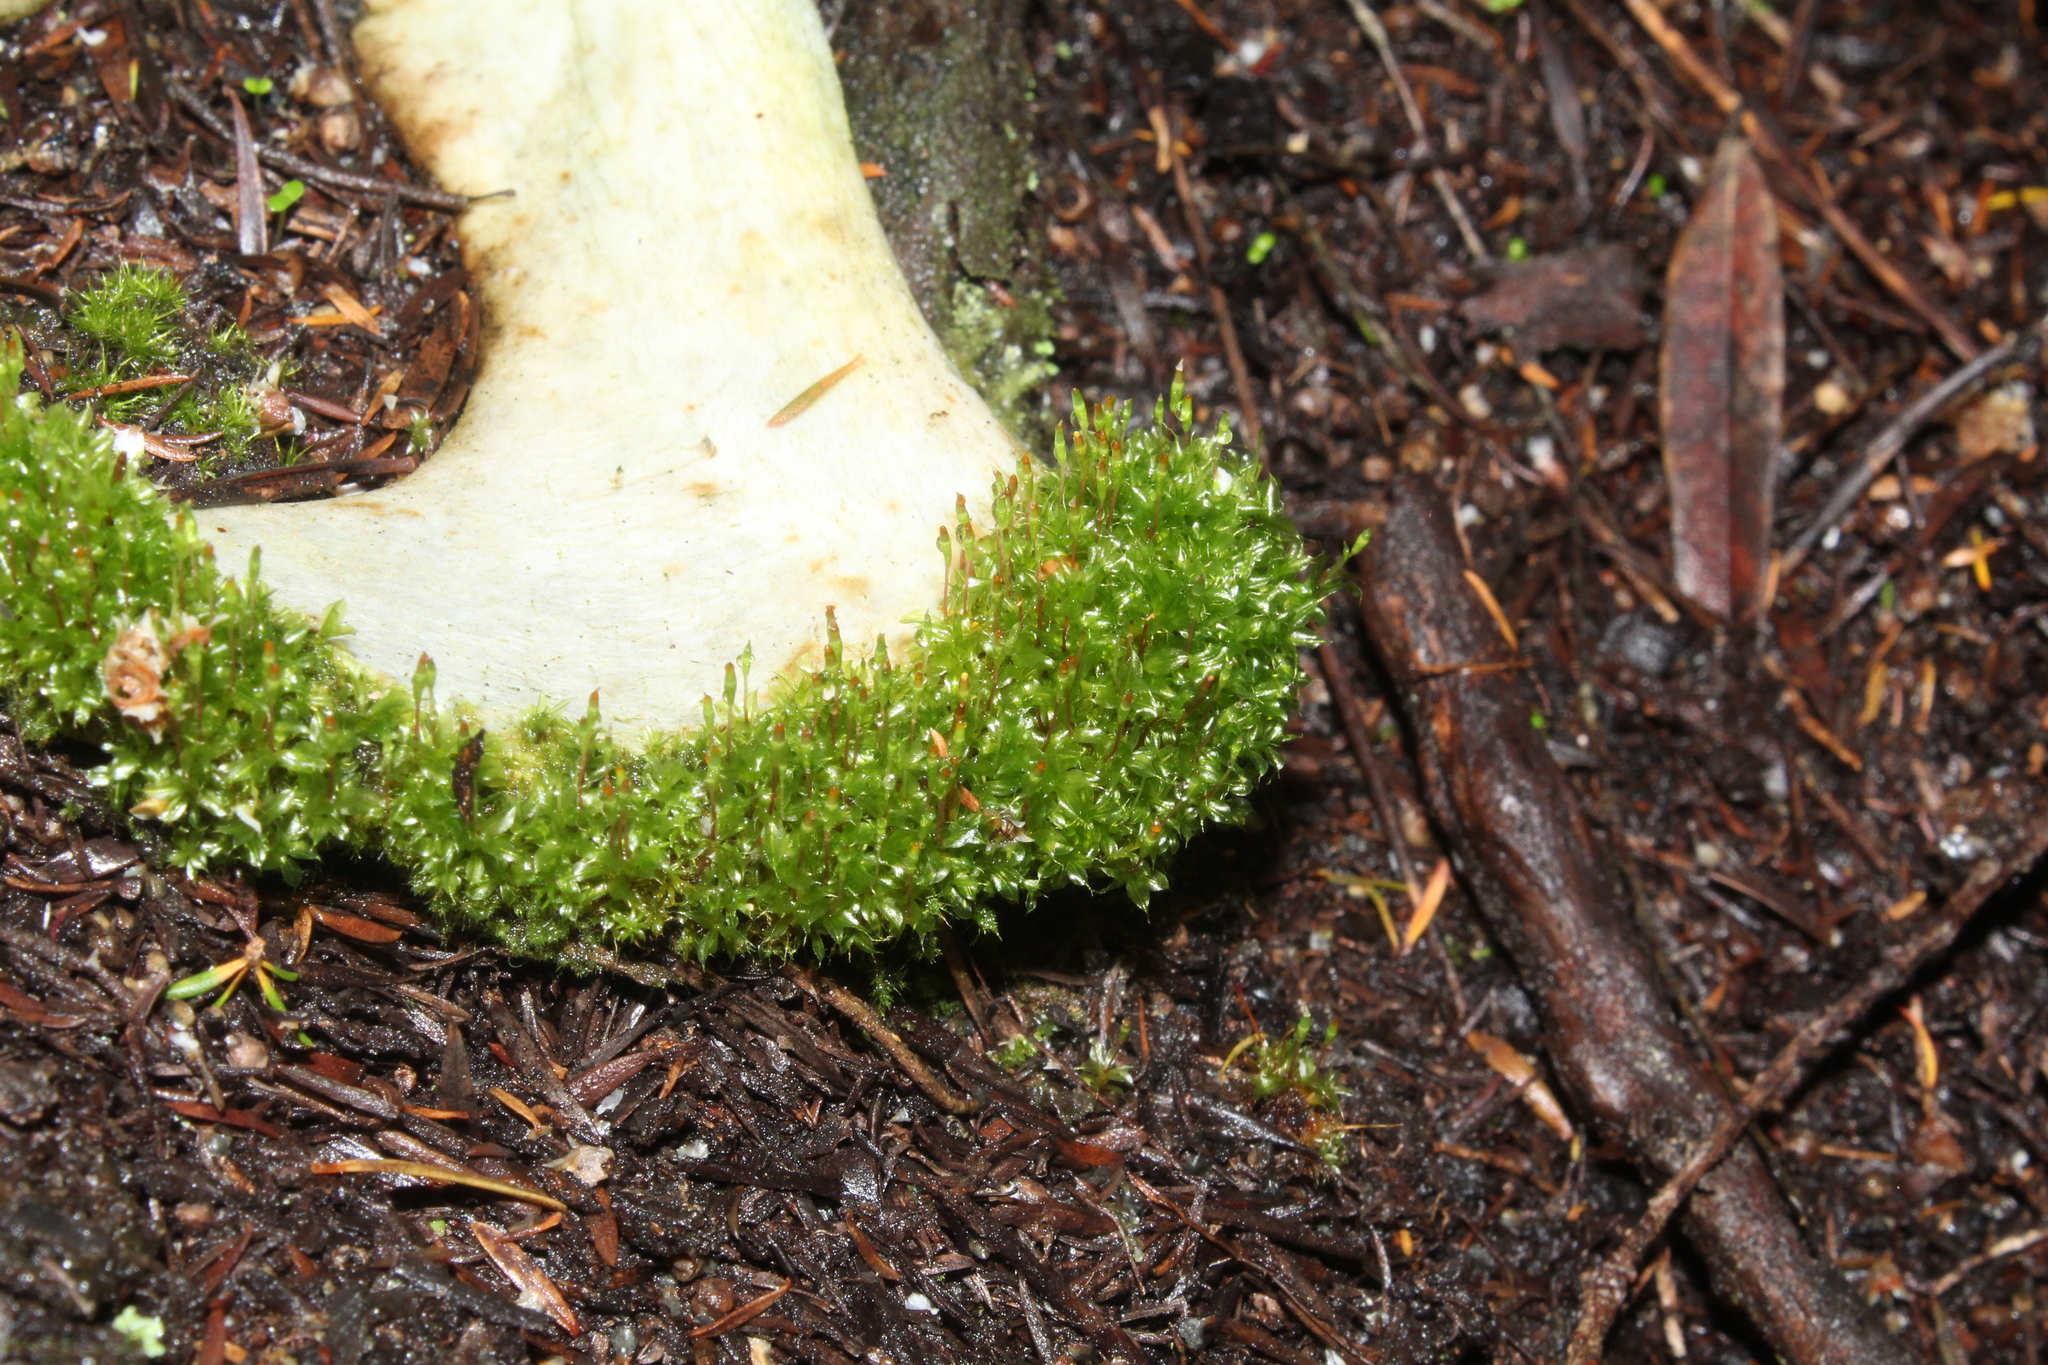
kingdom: Plantae
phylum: Bryophyta
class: Bryopsida
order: Splachnales
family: Splachnaceae
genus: Tayloria
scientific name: Tayloria octoblephara
